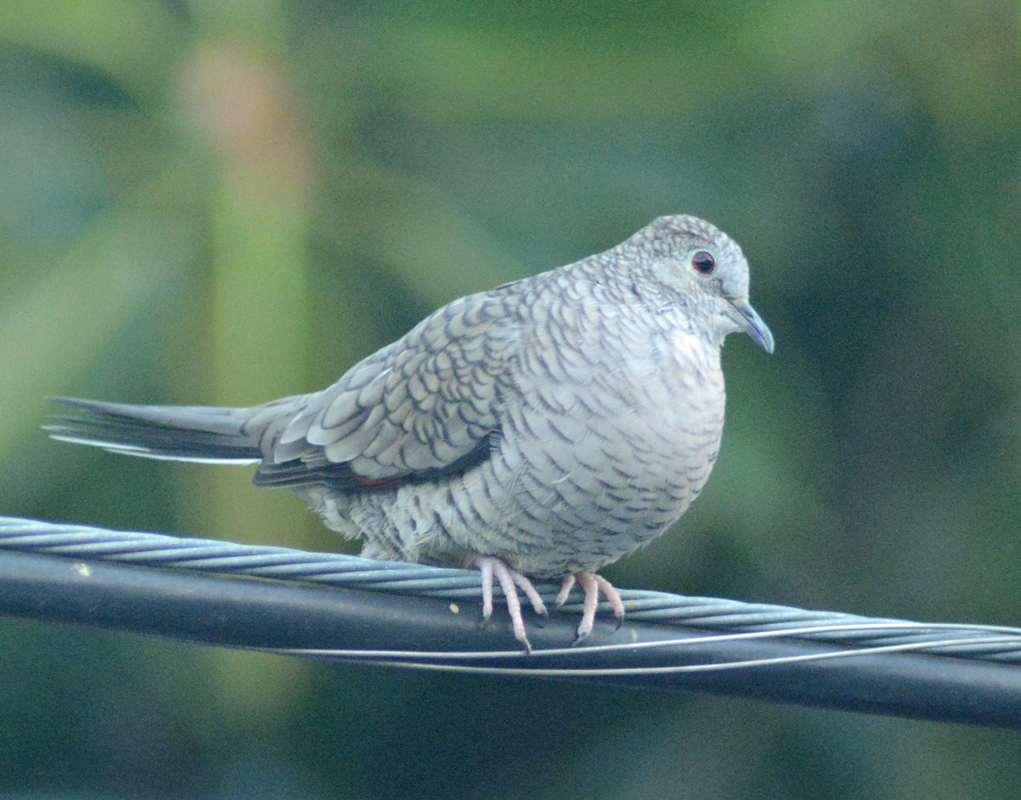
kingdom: Animalia
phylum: Chordata
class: Aves
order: Columbiformes
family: Columbidae
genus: Columbina
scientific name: Columbina inca
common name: Inca dove
